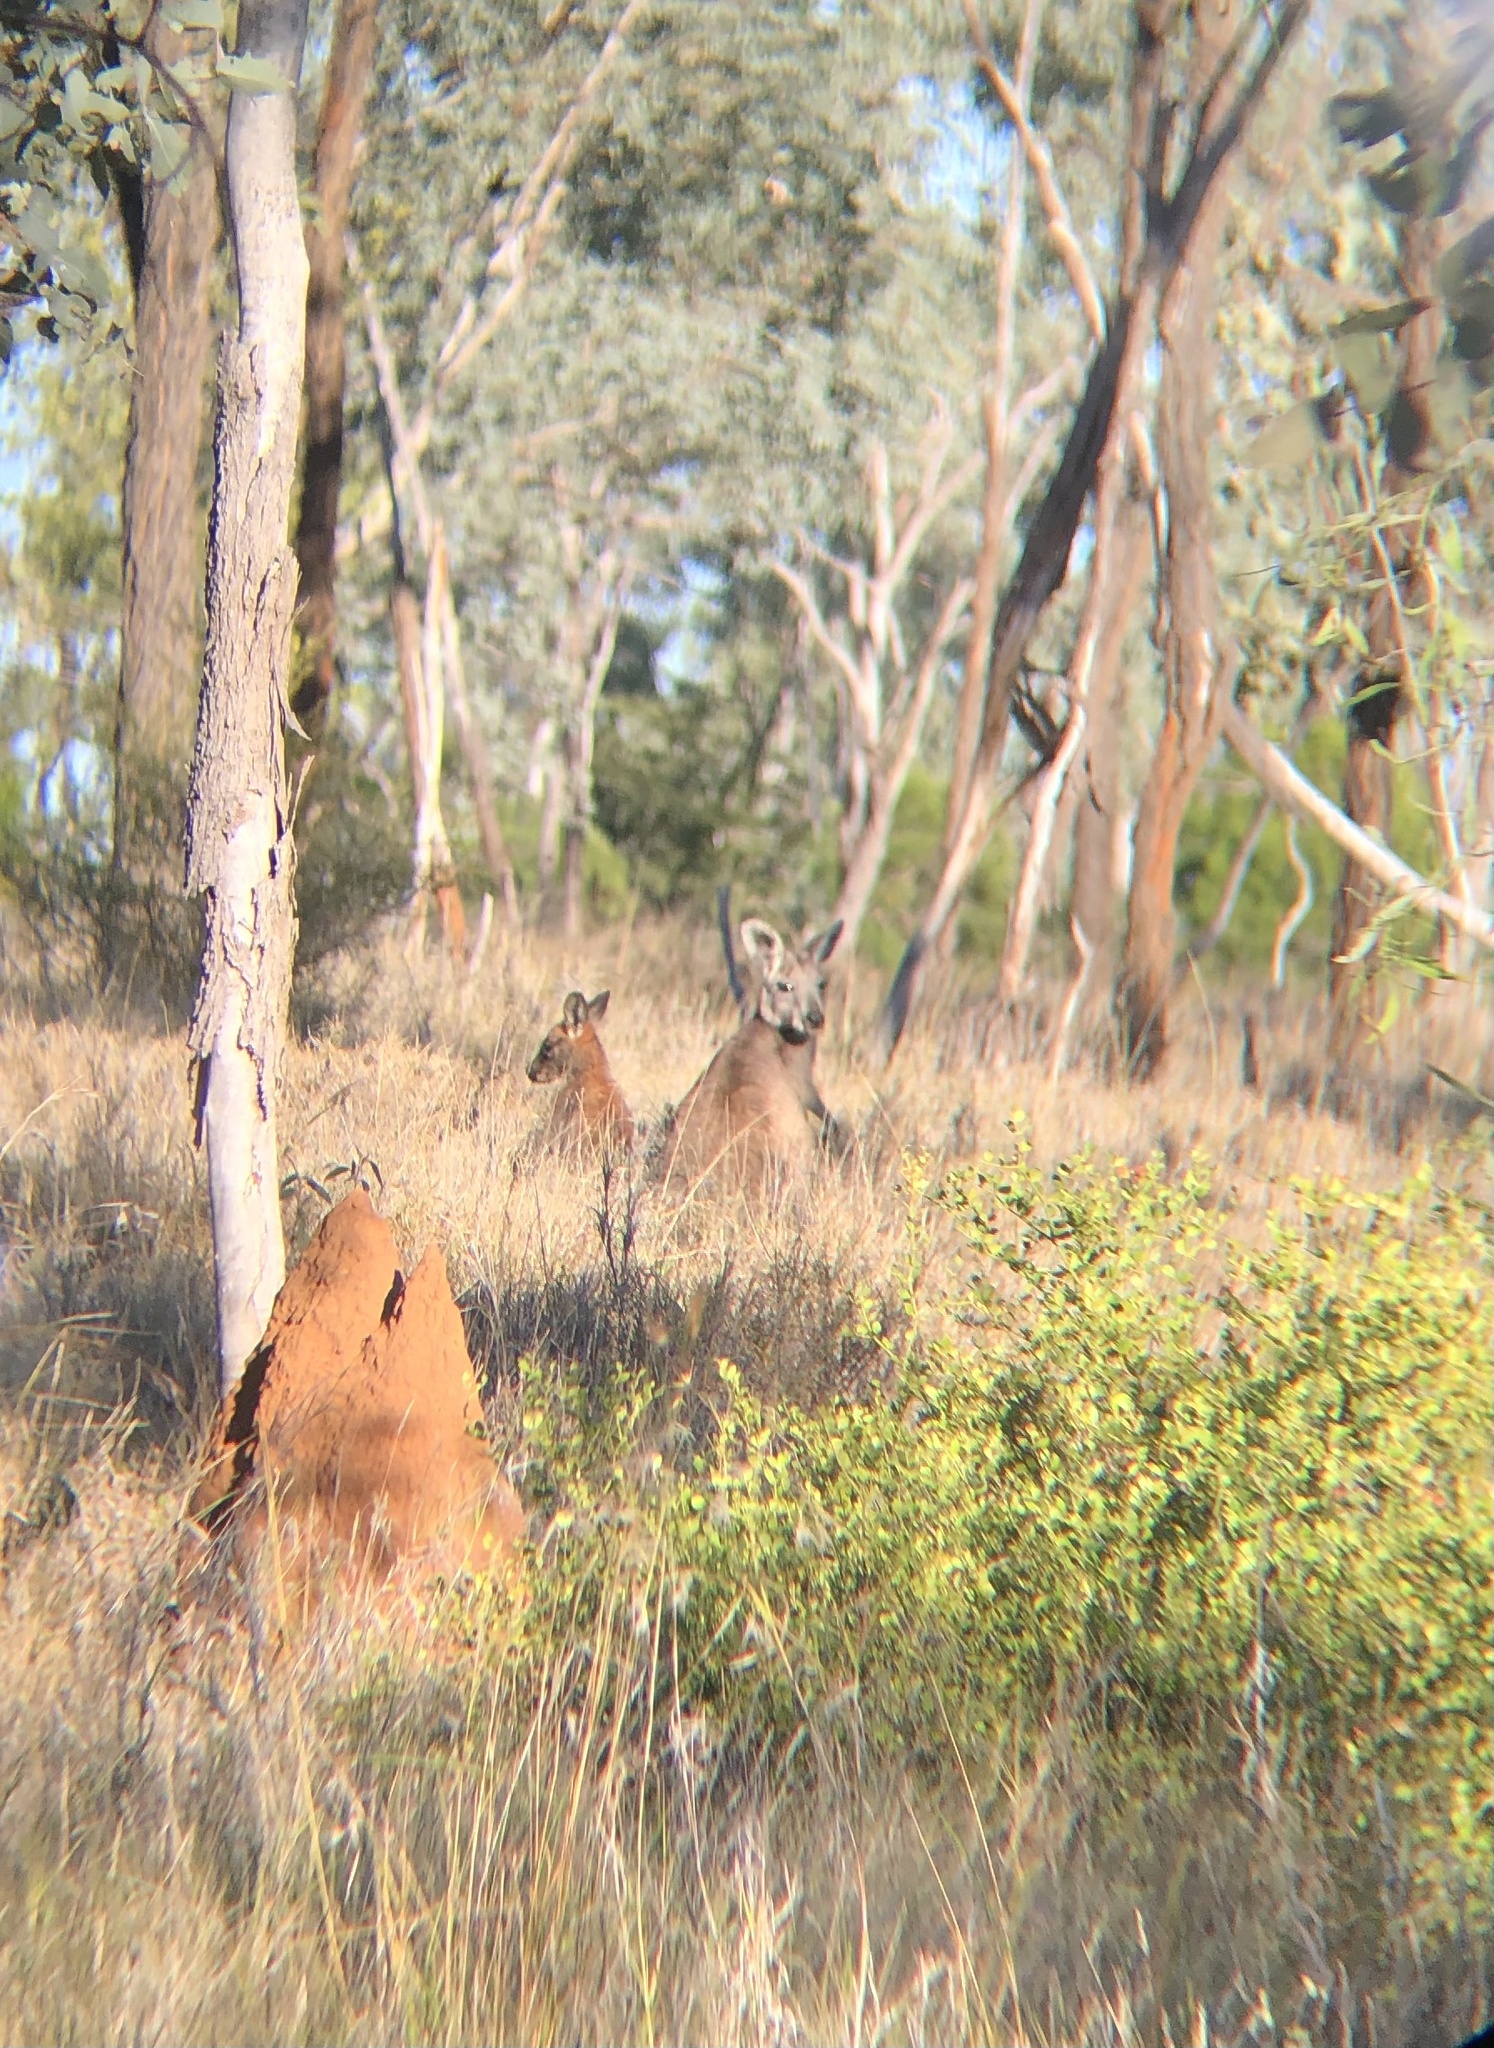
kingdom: Animalia
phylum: Chordata
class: Mammalia
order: Diprotodontia
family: Macropodidae
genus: Macropus
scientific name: Macropus robustus
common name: Eastern wallaroo
